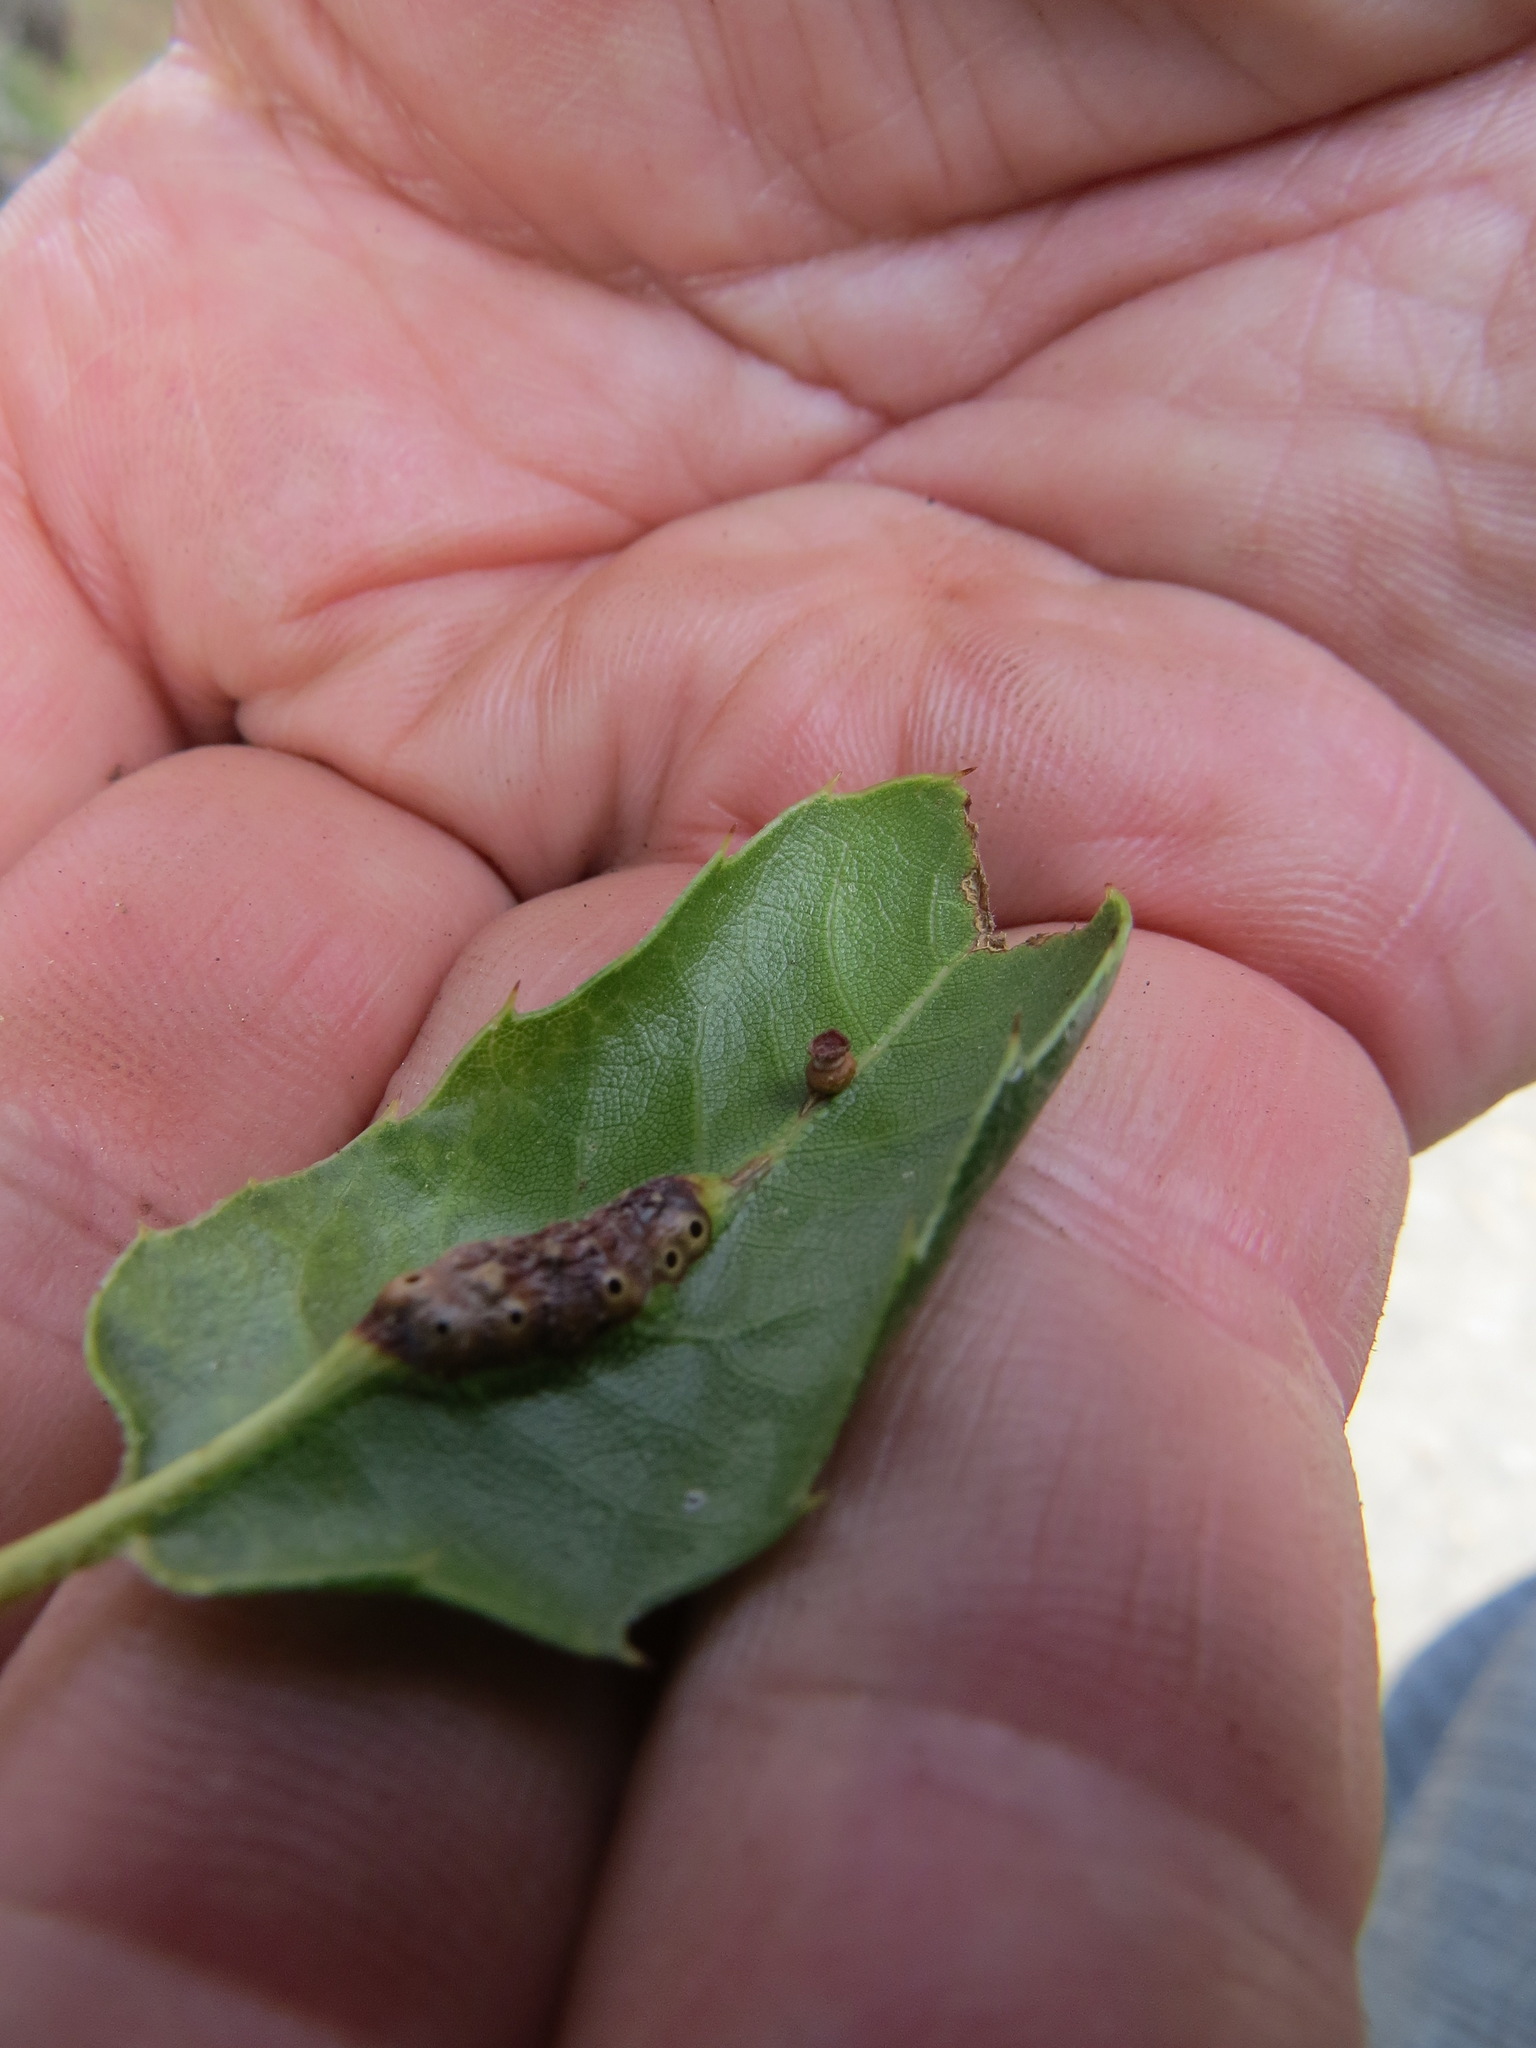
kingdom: Animalia
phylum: Arthropoda
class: Insecta
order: Hymenoptera
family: Cynipidae
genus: Melikaiella
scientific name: Melikaiella
